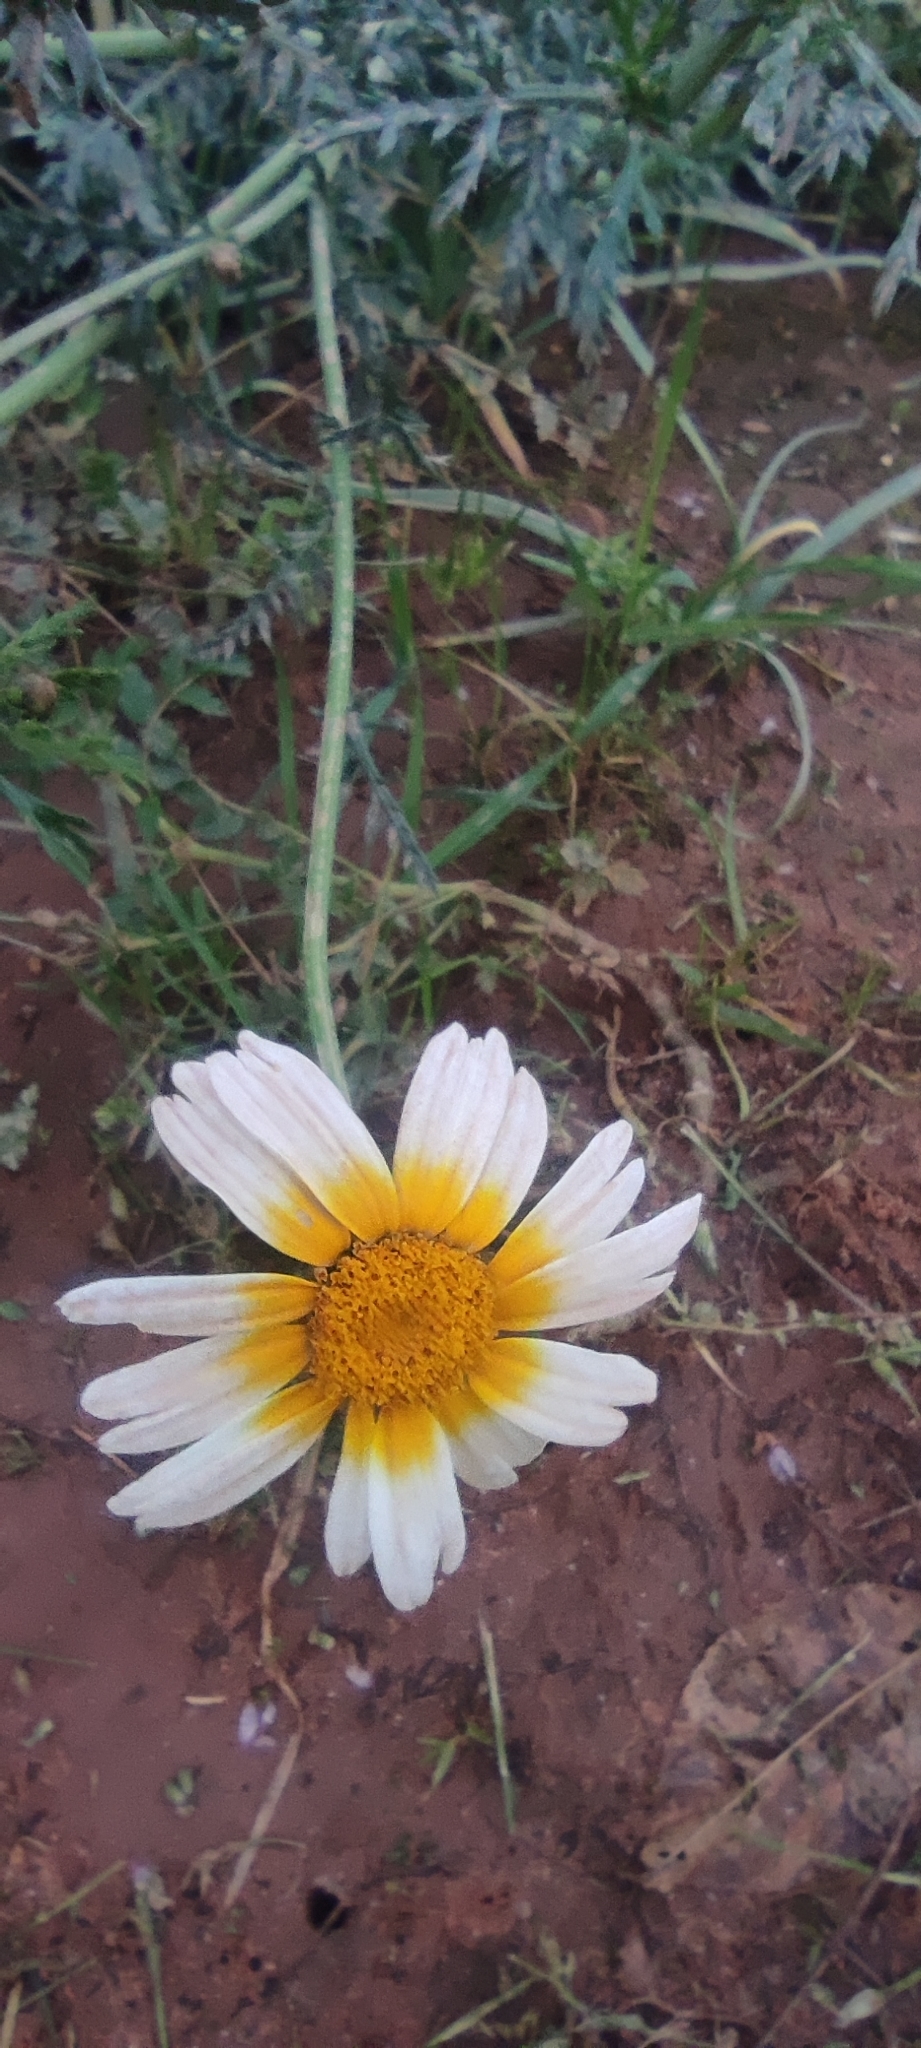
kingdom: Plantae
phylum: Tracheophyta
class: Magnoliopsida
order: Asterales
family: Asteraceae
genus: Glebionis
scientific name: Glebionis coronaria
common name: Crowndaisy
